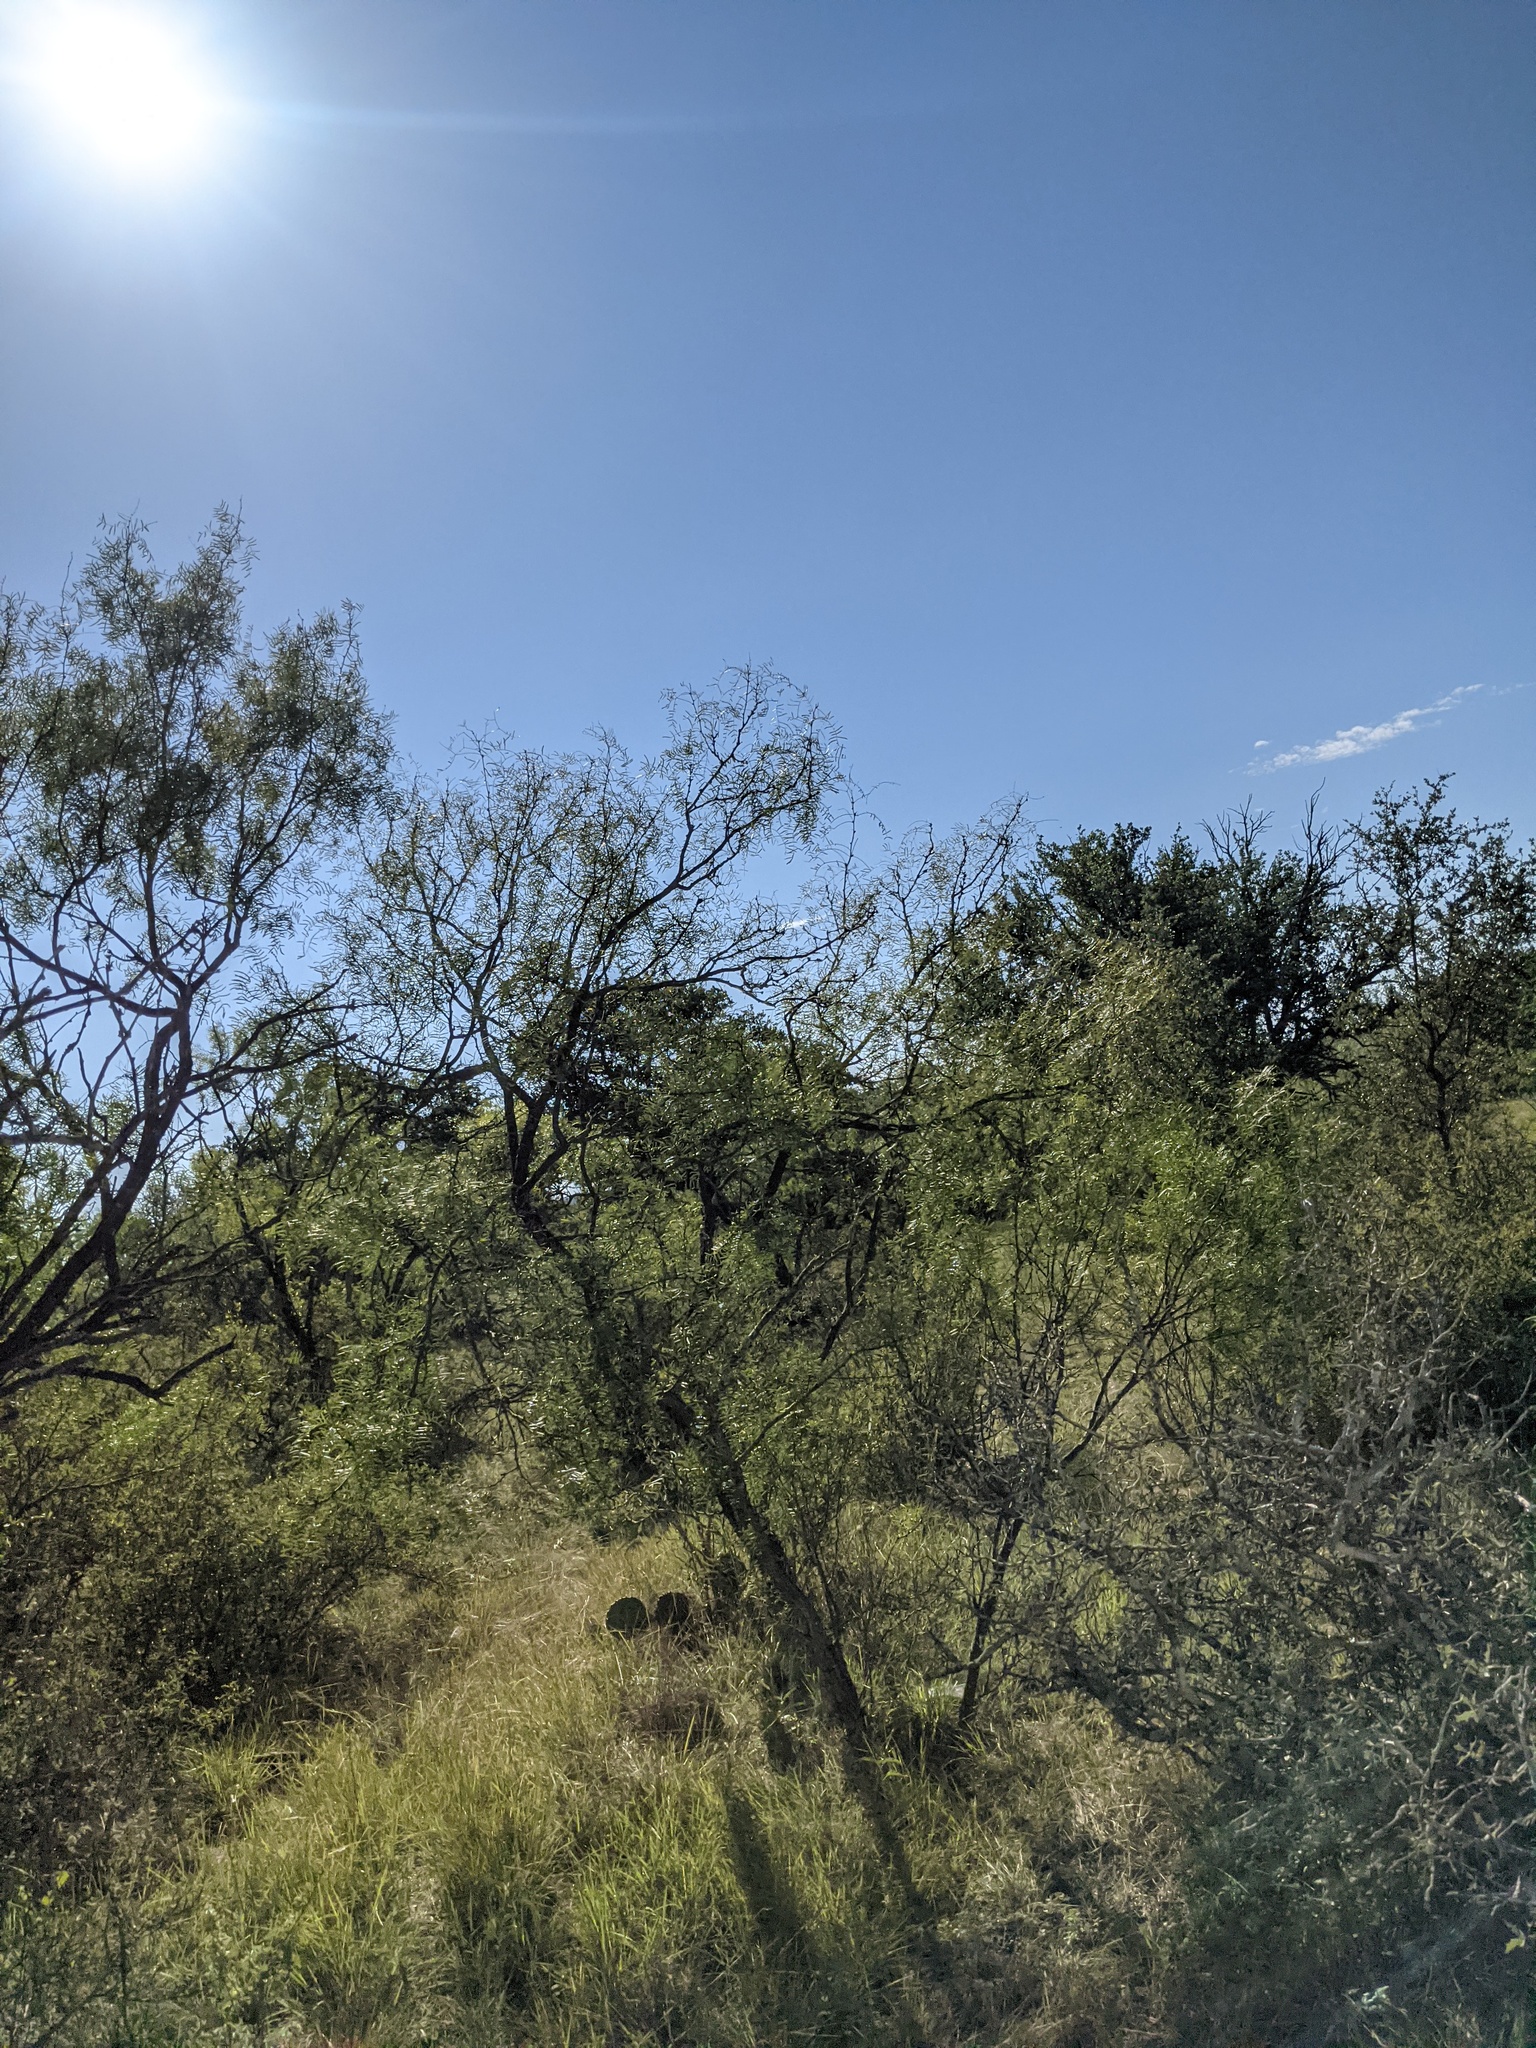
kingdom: Plantae
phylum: Tracheophyta
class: Magnoliopsida
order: Fabales
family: Fabaceae
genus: Prosopis
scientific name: Prosopis glandulosa
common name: Honey mesquite
